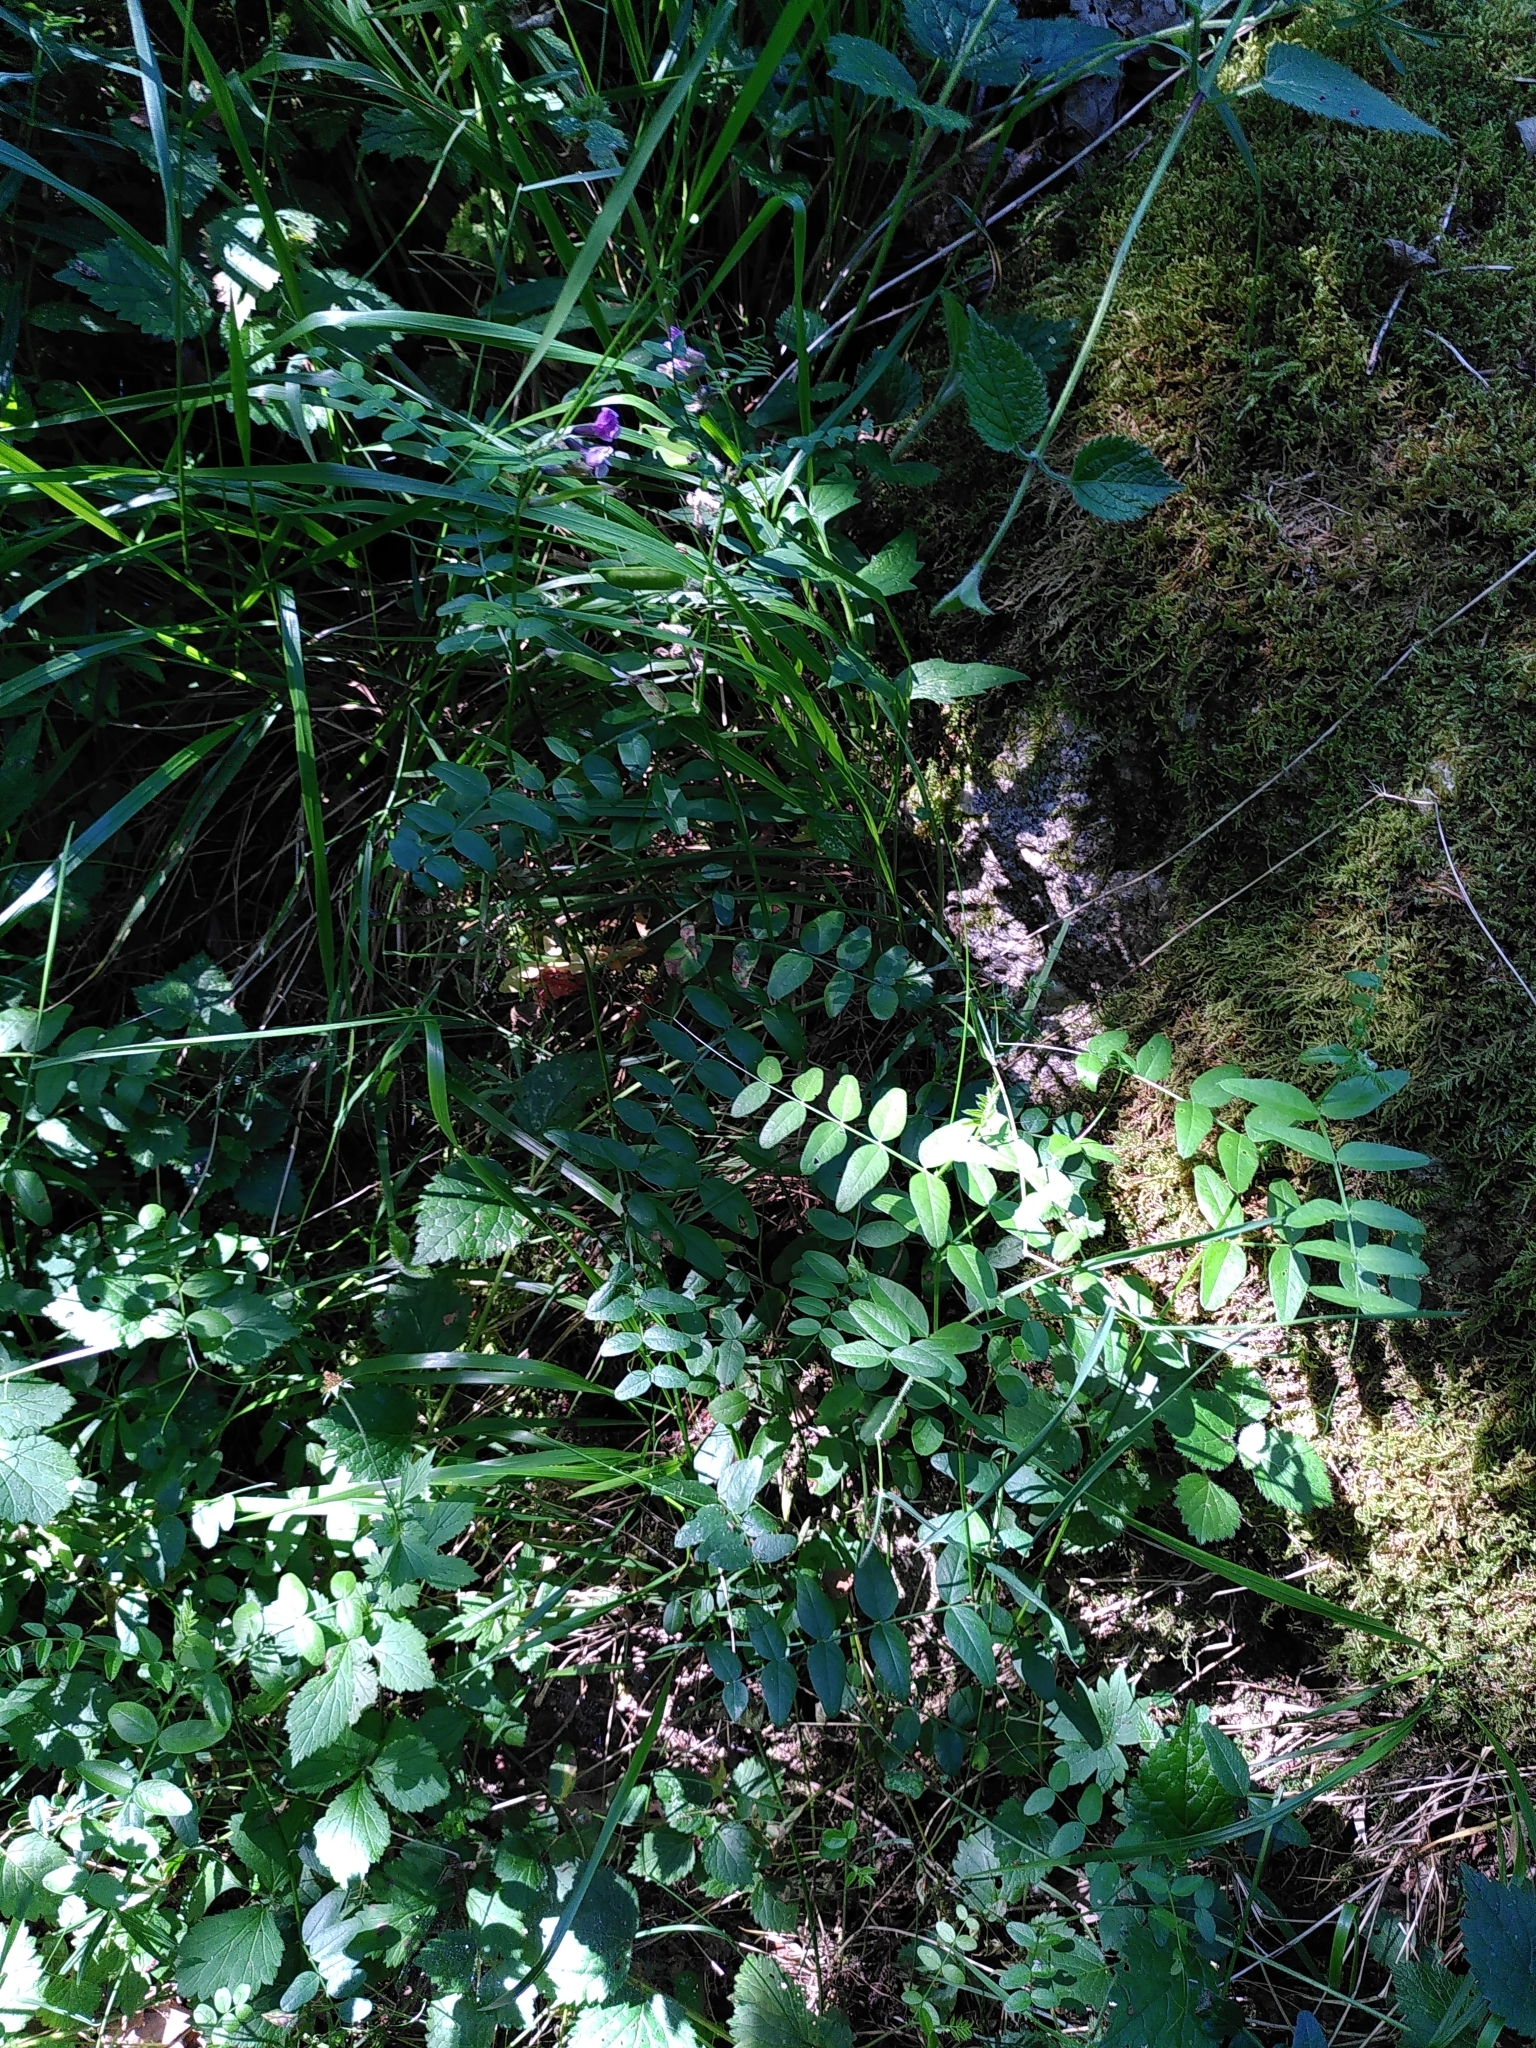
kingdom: Plantae
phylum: Tracheophyta
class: Magnoliopsida
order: Fabales
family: Fabaceae
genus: Vicia
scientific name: Vicia sepium
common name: Bush vetch
